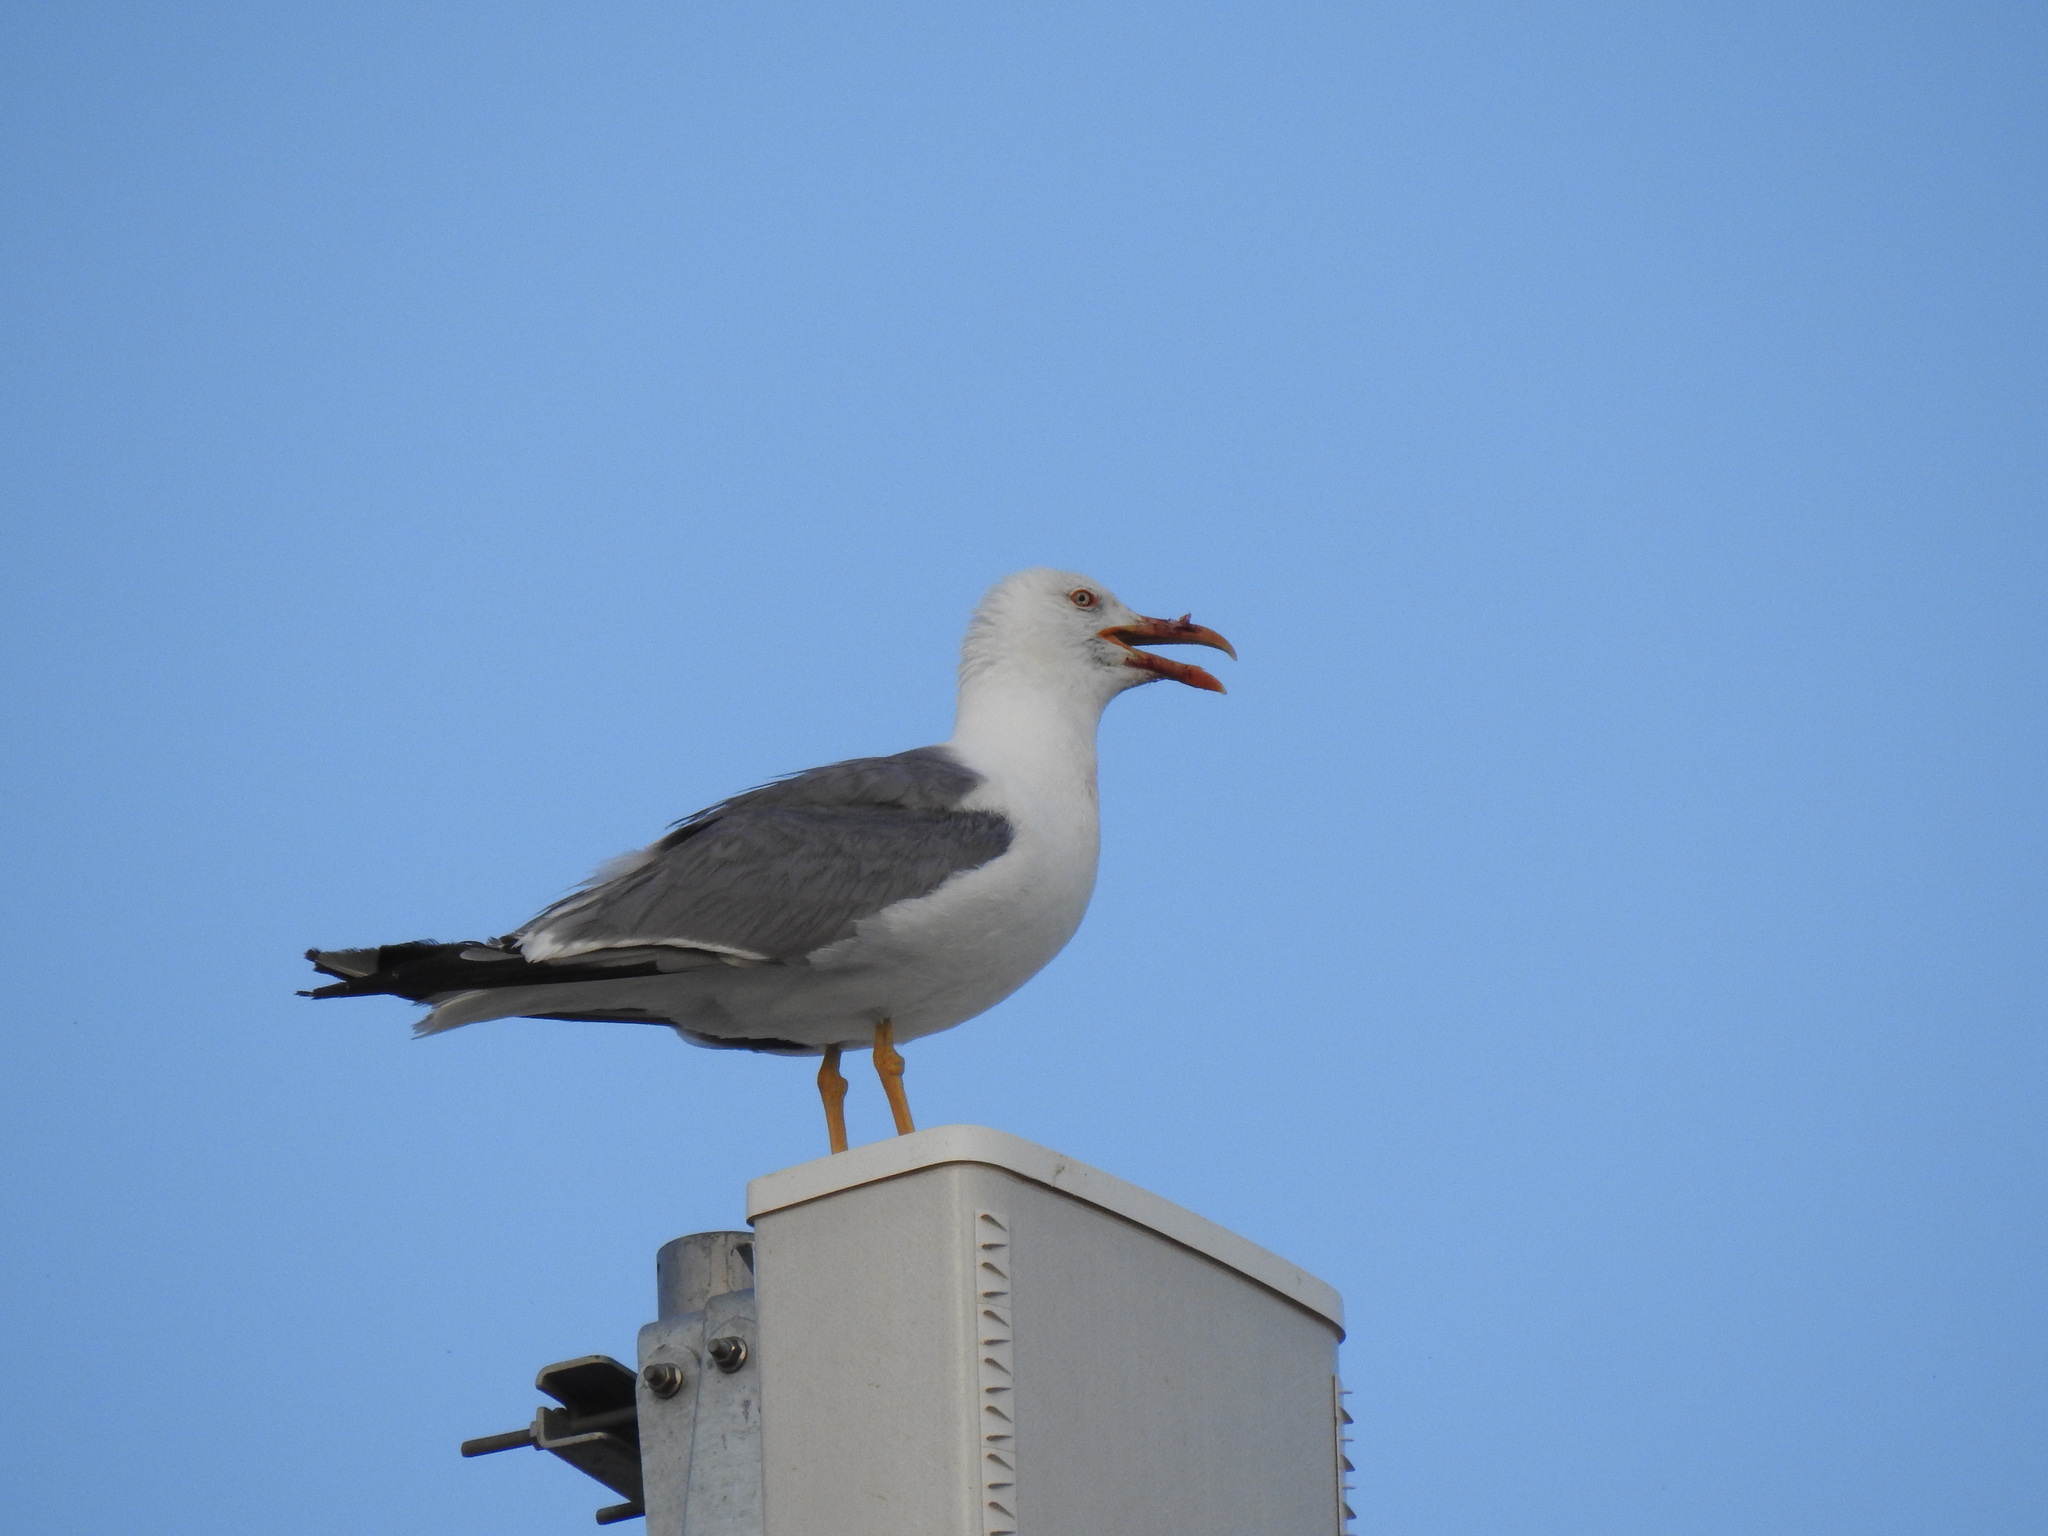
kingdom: Animalia
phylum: Chordata
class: Aves
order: Charadriiformes
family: Laridae
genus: Larus
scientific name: Larus michahellis
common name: Yellow-legged gull
